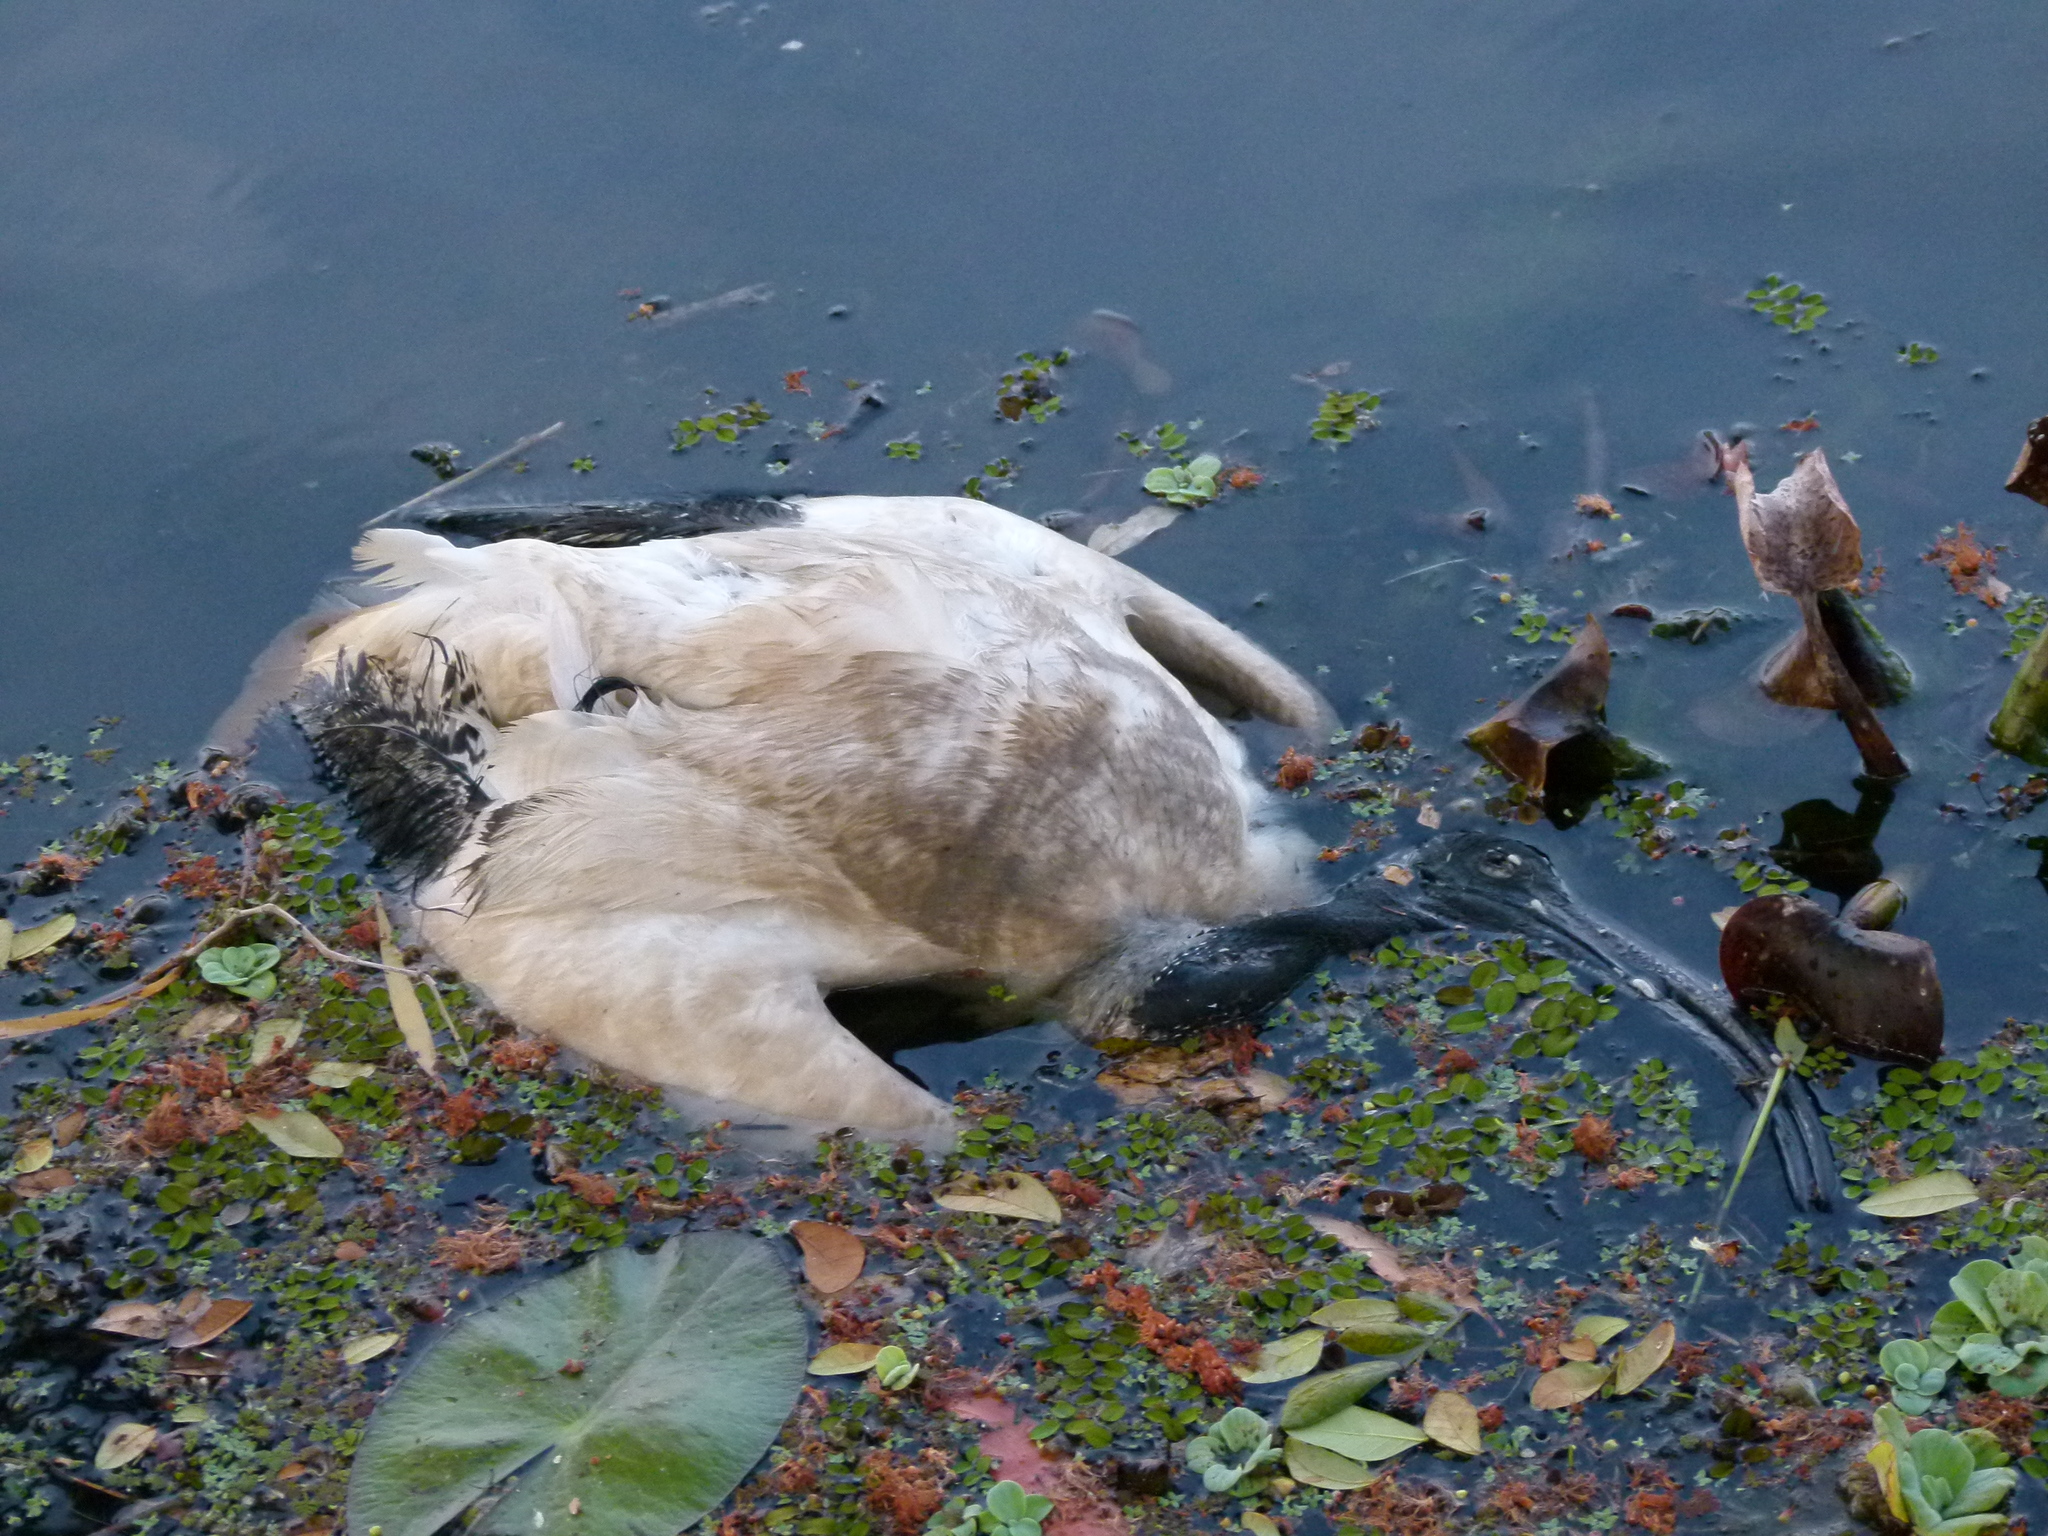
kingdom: Animalia
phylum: Chordata
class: Aves
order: Pelecaniformes
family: Threskiornithidae
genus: Threskiornis
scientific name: Threskiornis molucca
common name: Australian white ibis
